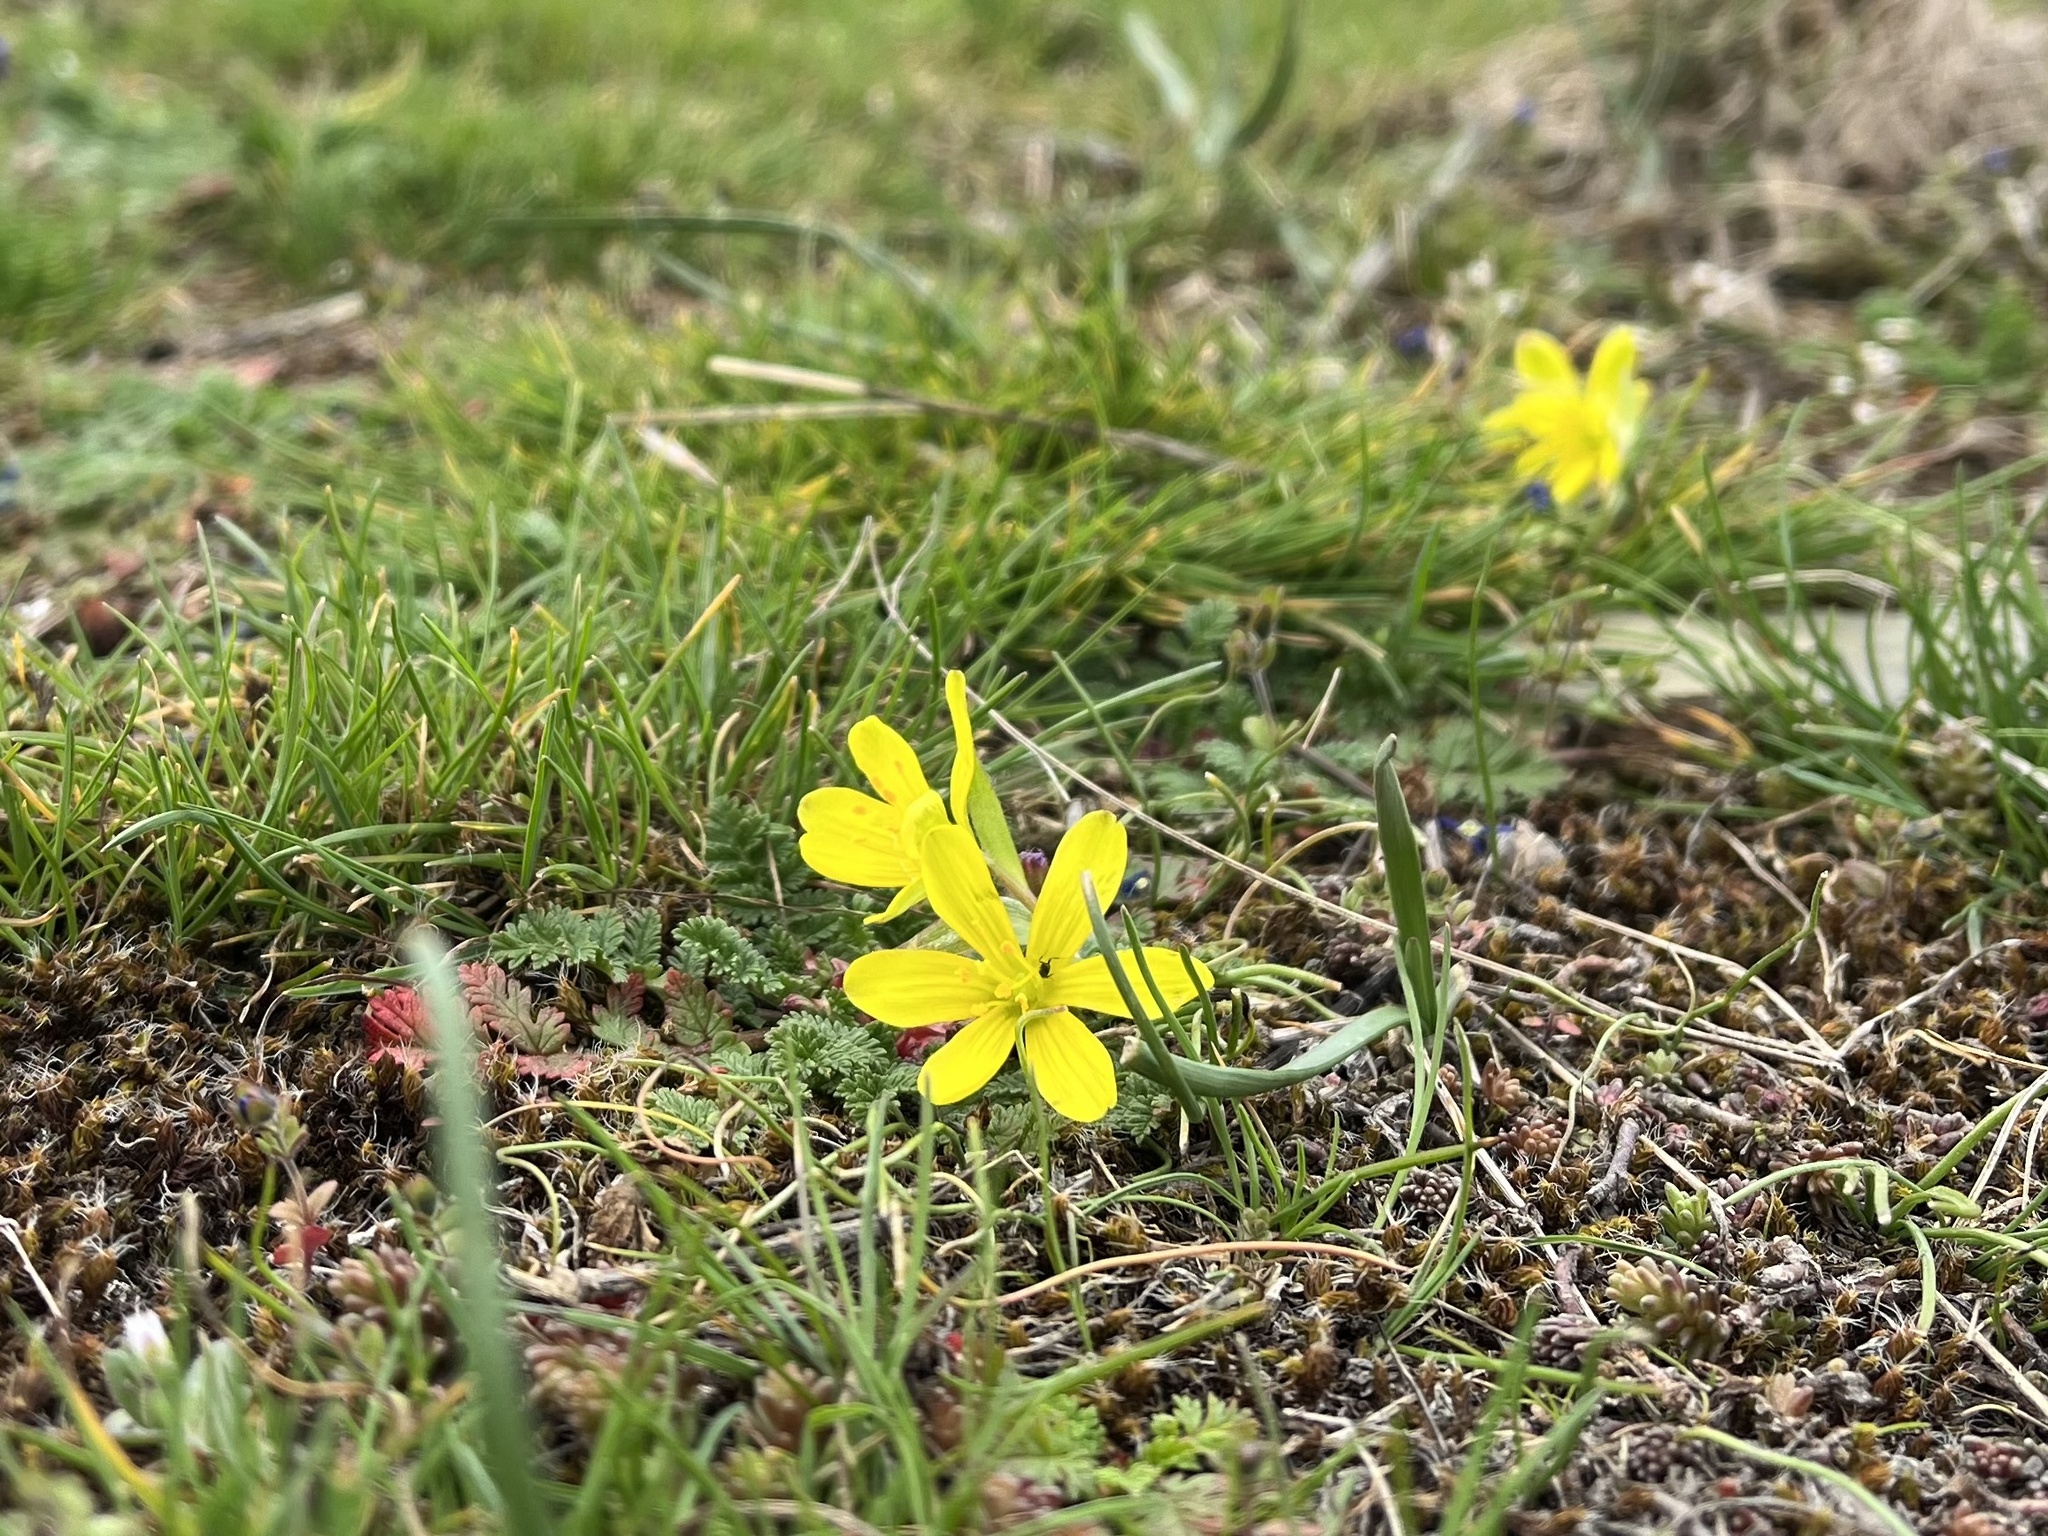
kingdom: Plantae
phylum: Tracheophyta
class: Liliopsida
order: Liliales
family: Liliaceae
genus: Gagea
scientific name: Gagea bohemica
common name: Early star-of-bethlehem
